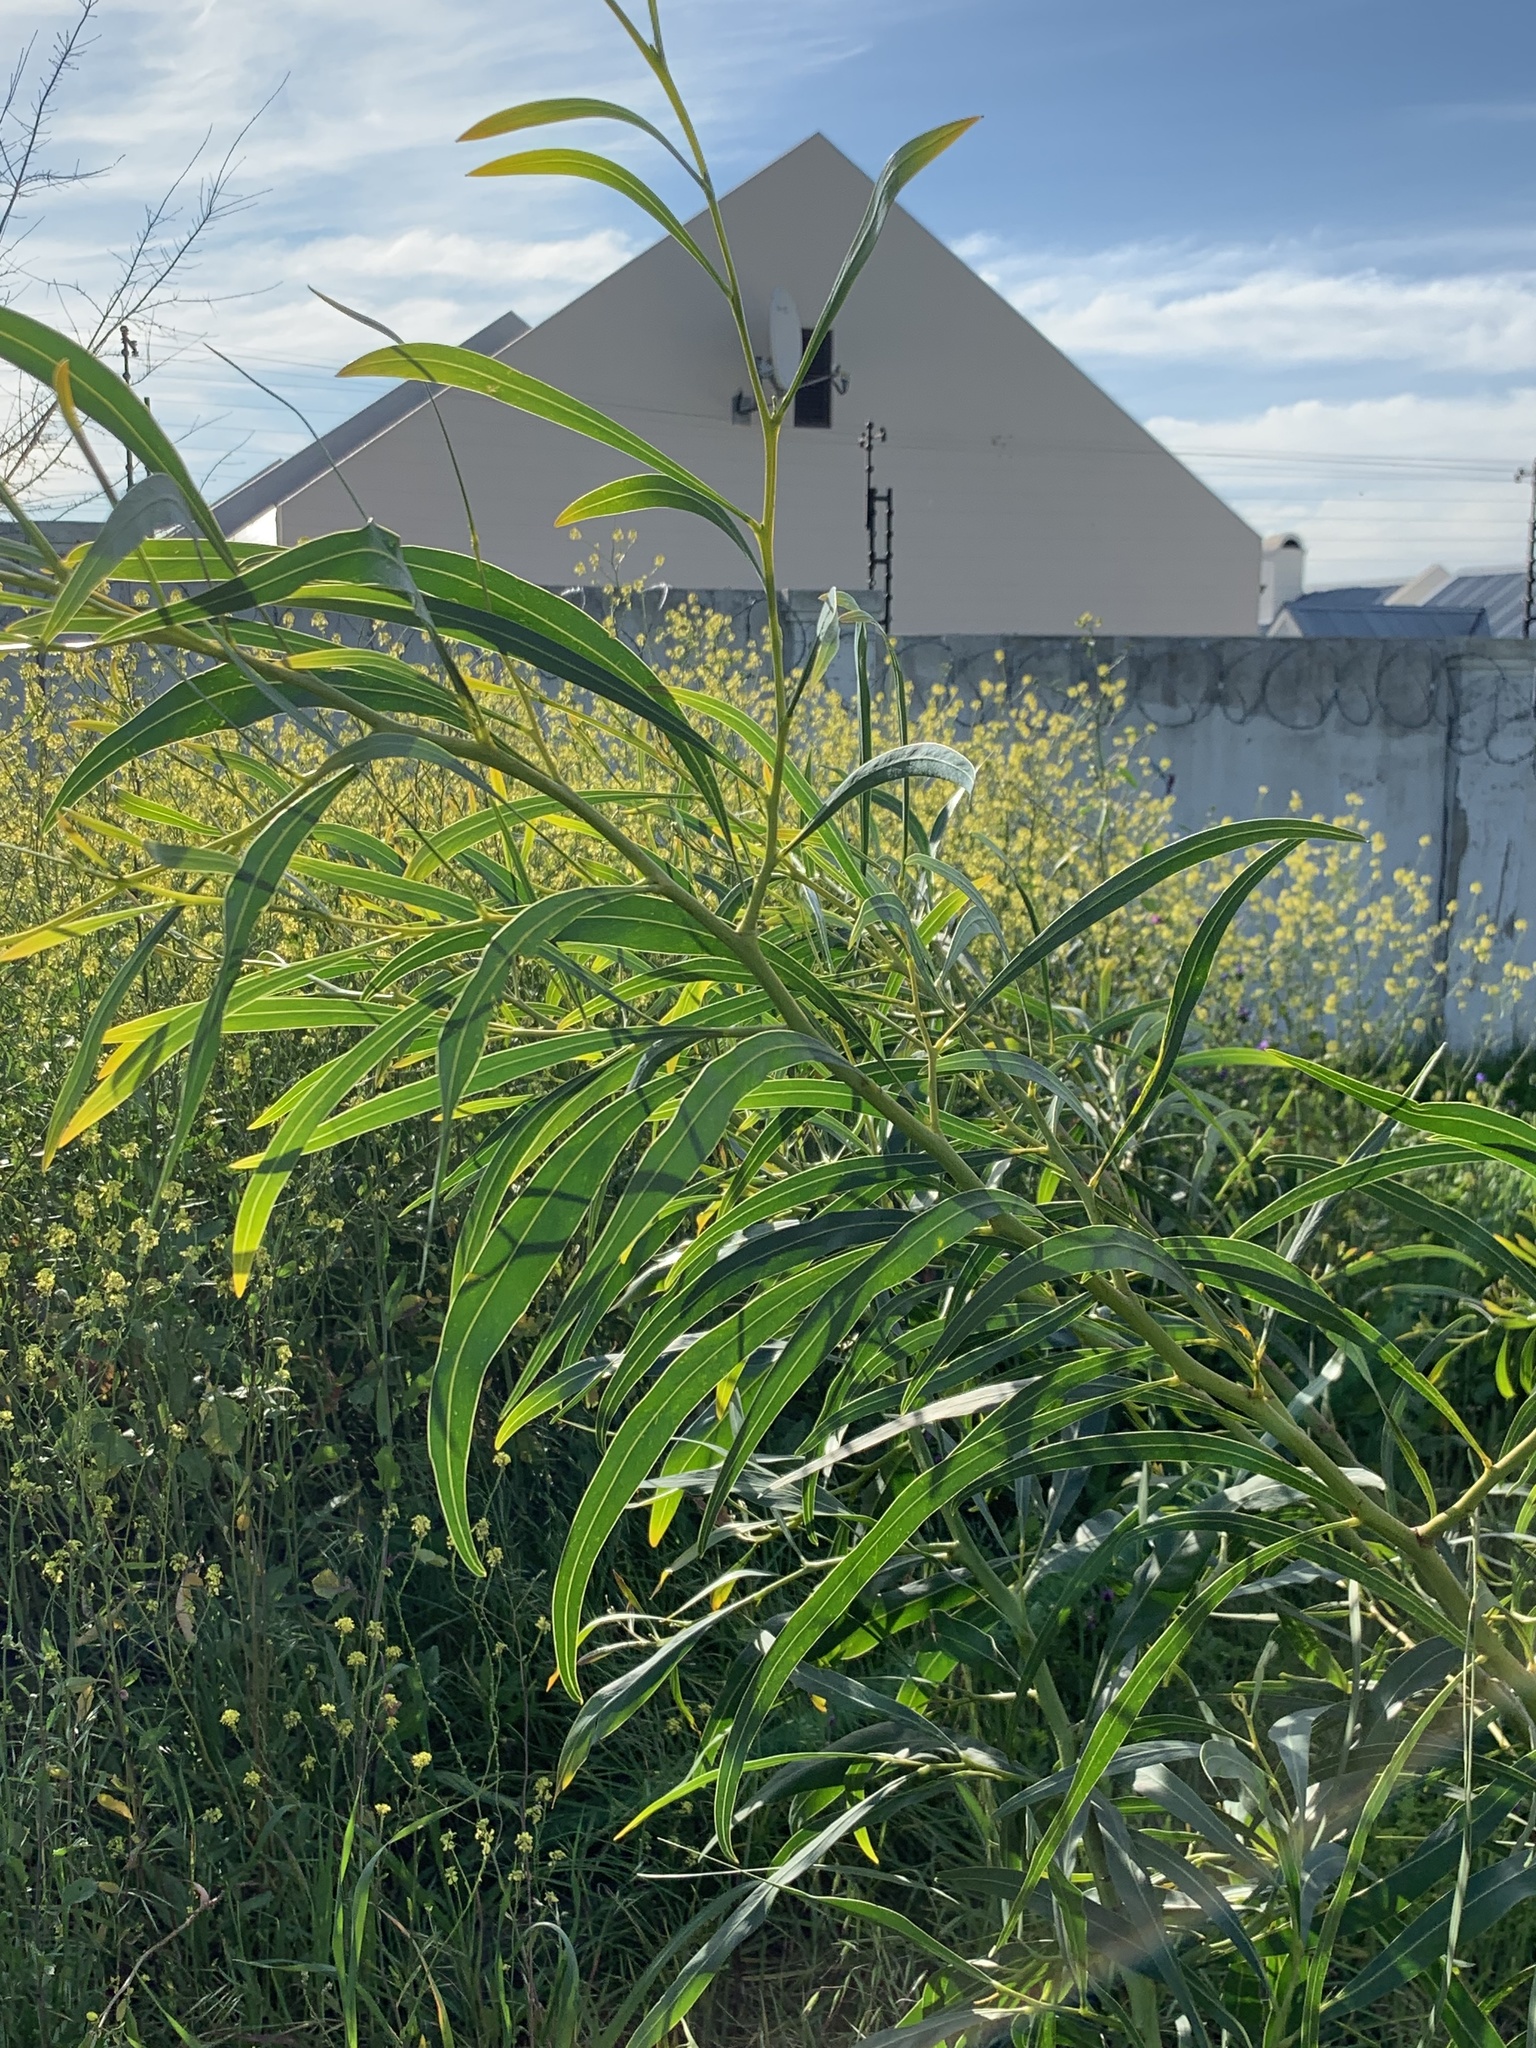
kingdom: Plantae
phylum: Tracheophyta
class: Magnoliopsida
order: Fabales
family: Fabaceae
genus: Acacia
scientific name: Acacia saligna
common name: Orange wattle
